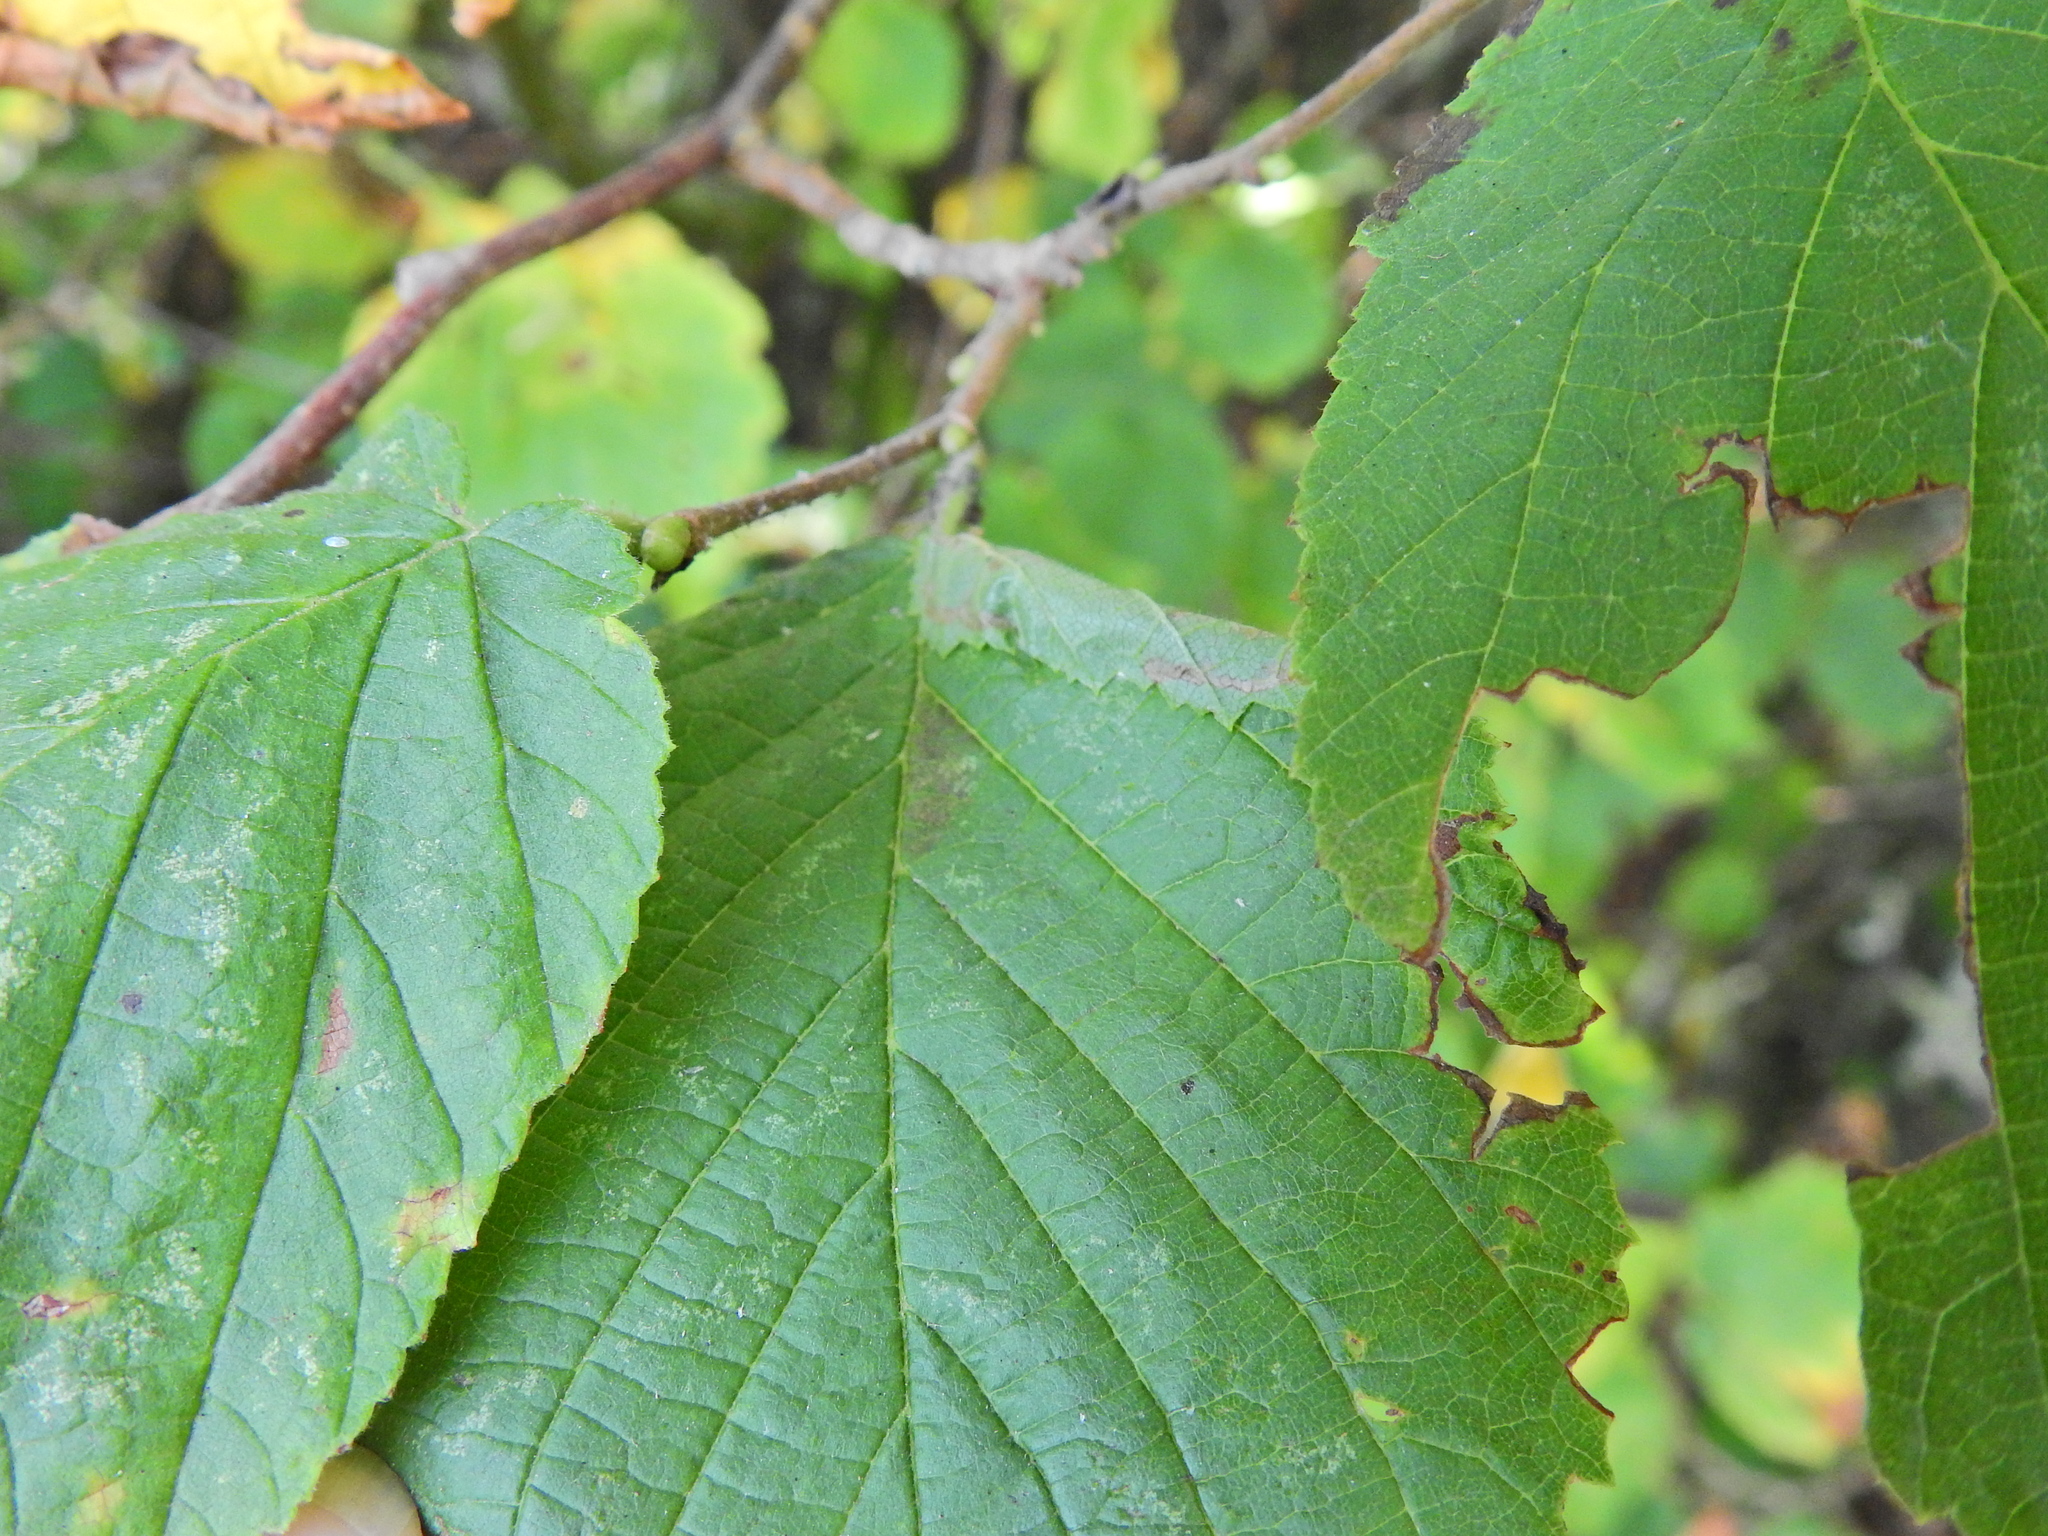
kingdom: Animalia
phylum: Arthropoda
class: Insecta
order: Lepidoptera
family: Gracillariidae
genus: Parornix
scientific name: Parornix devoniella
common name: Hazel slender
